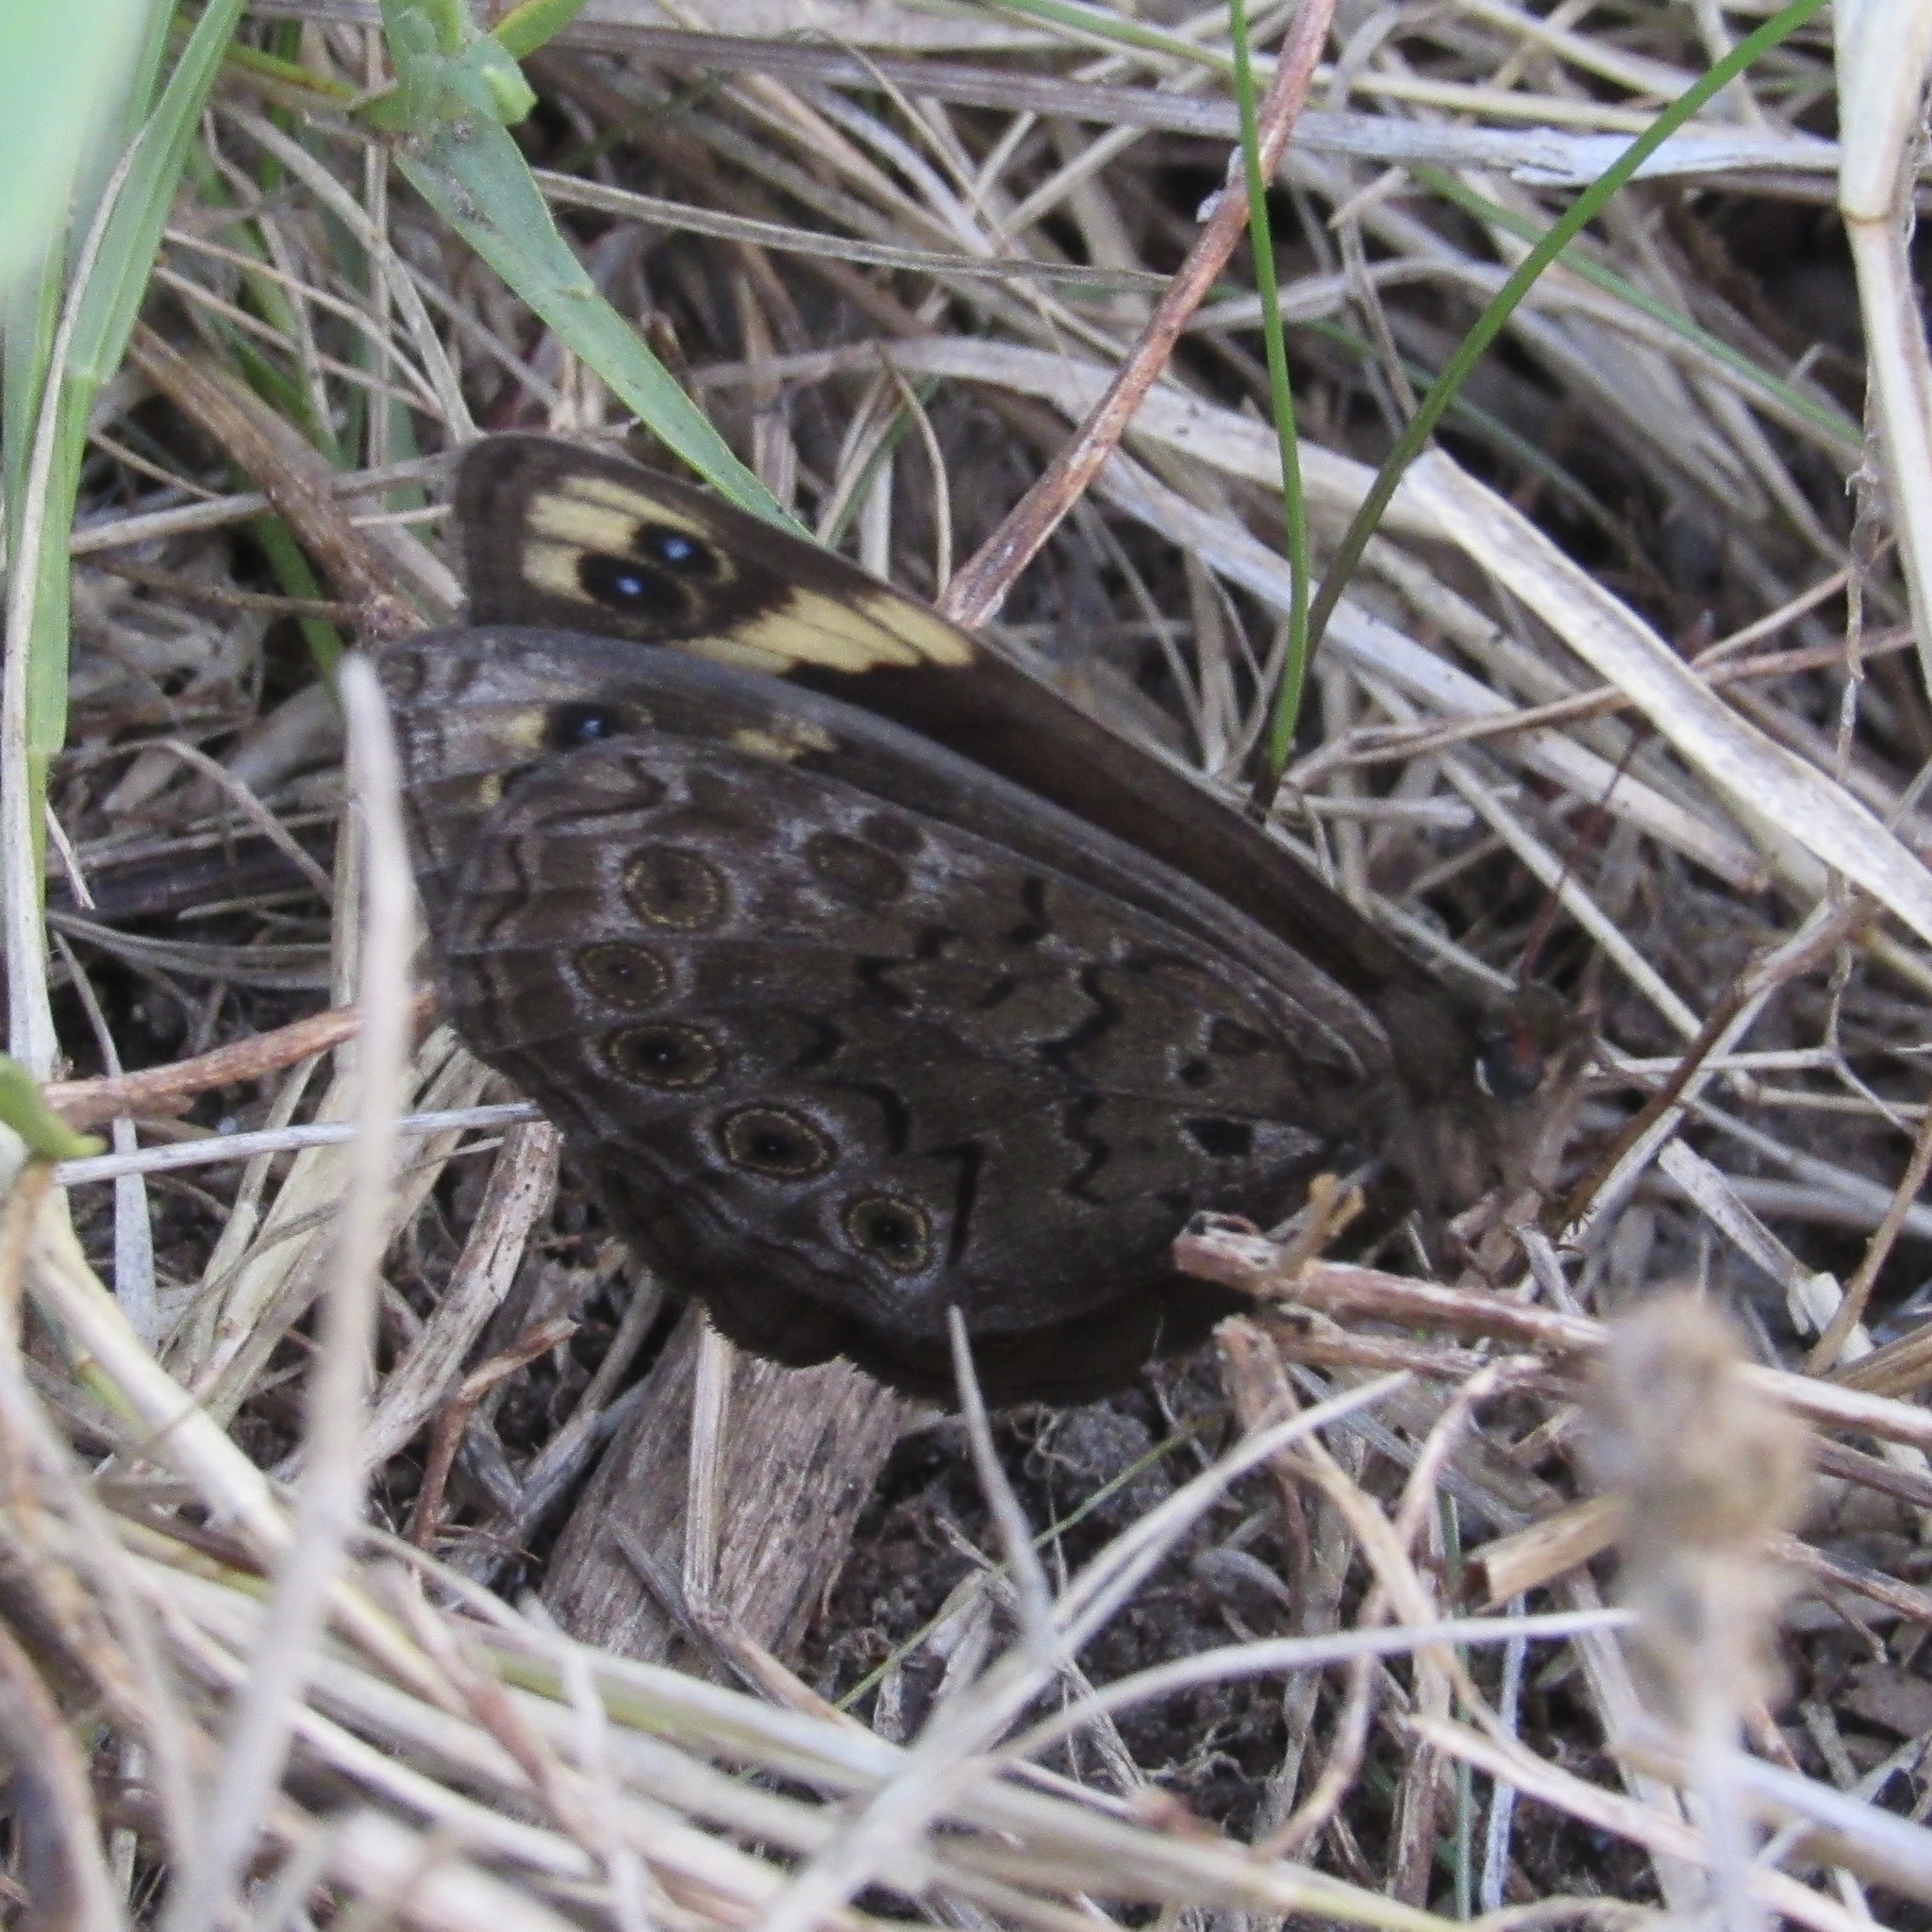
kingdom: Animalia
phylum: Arthropoda
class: Insecta
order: Lepidoptera
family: Nymphalidae
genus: Dira
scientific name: Dira clytus
